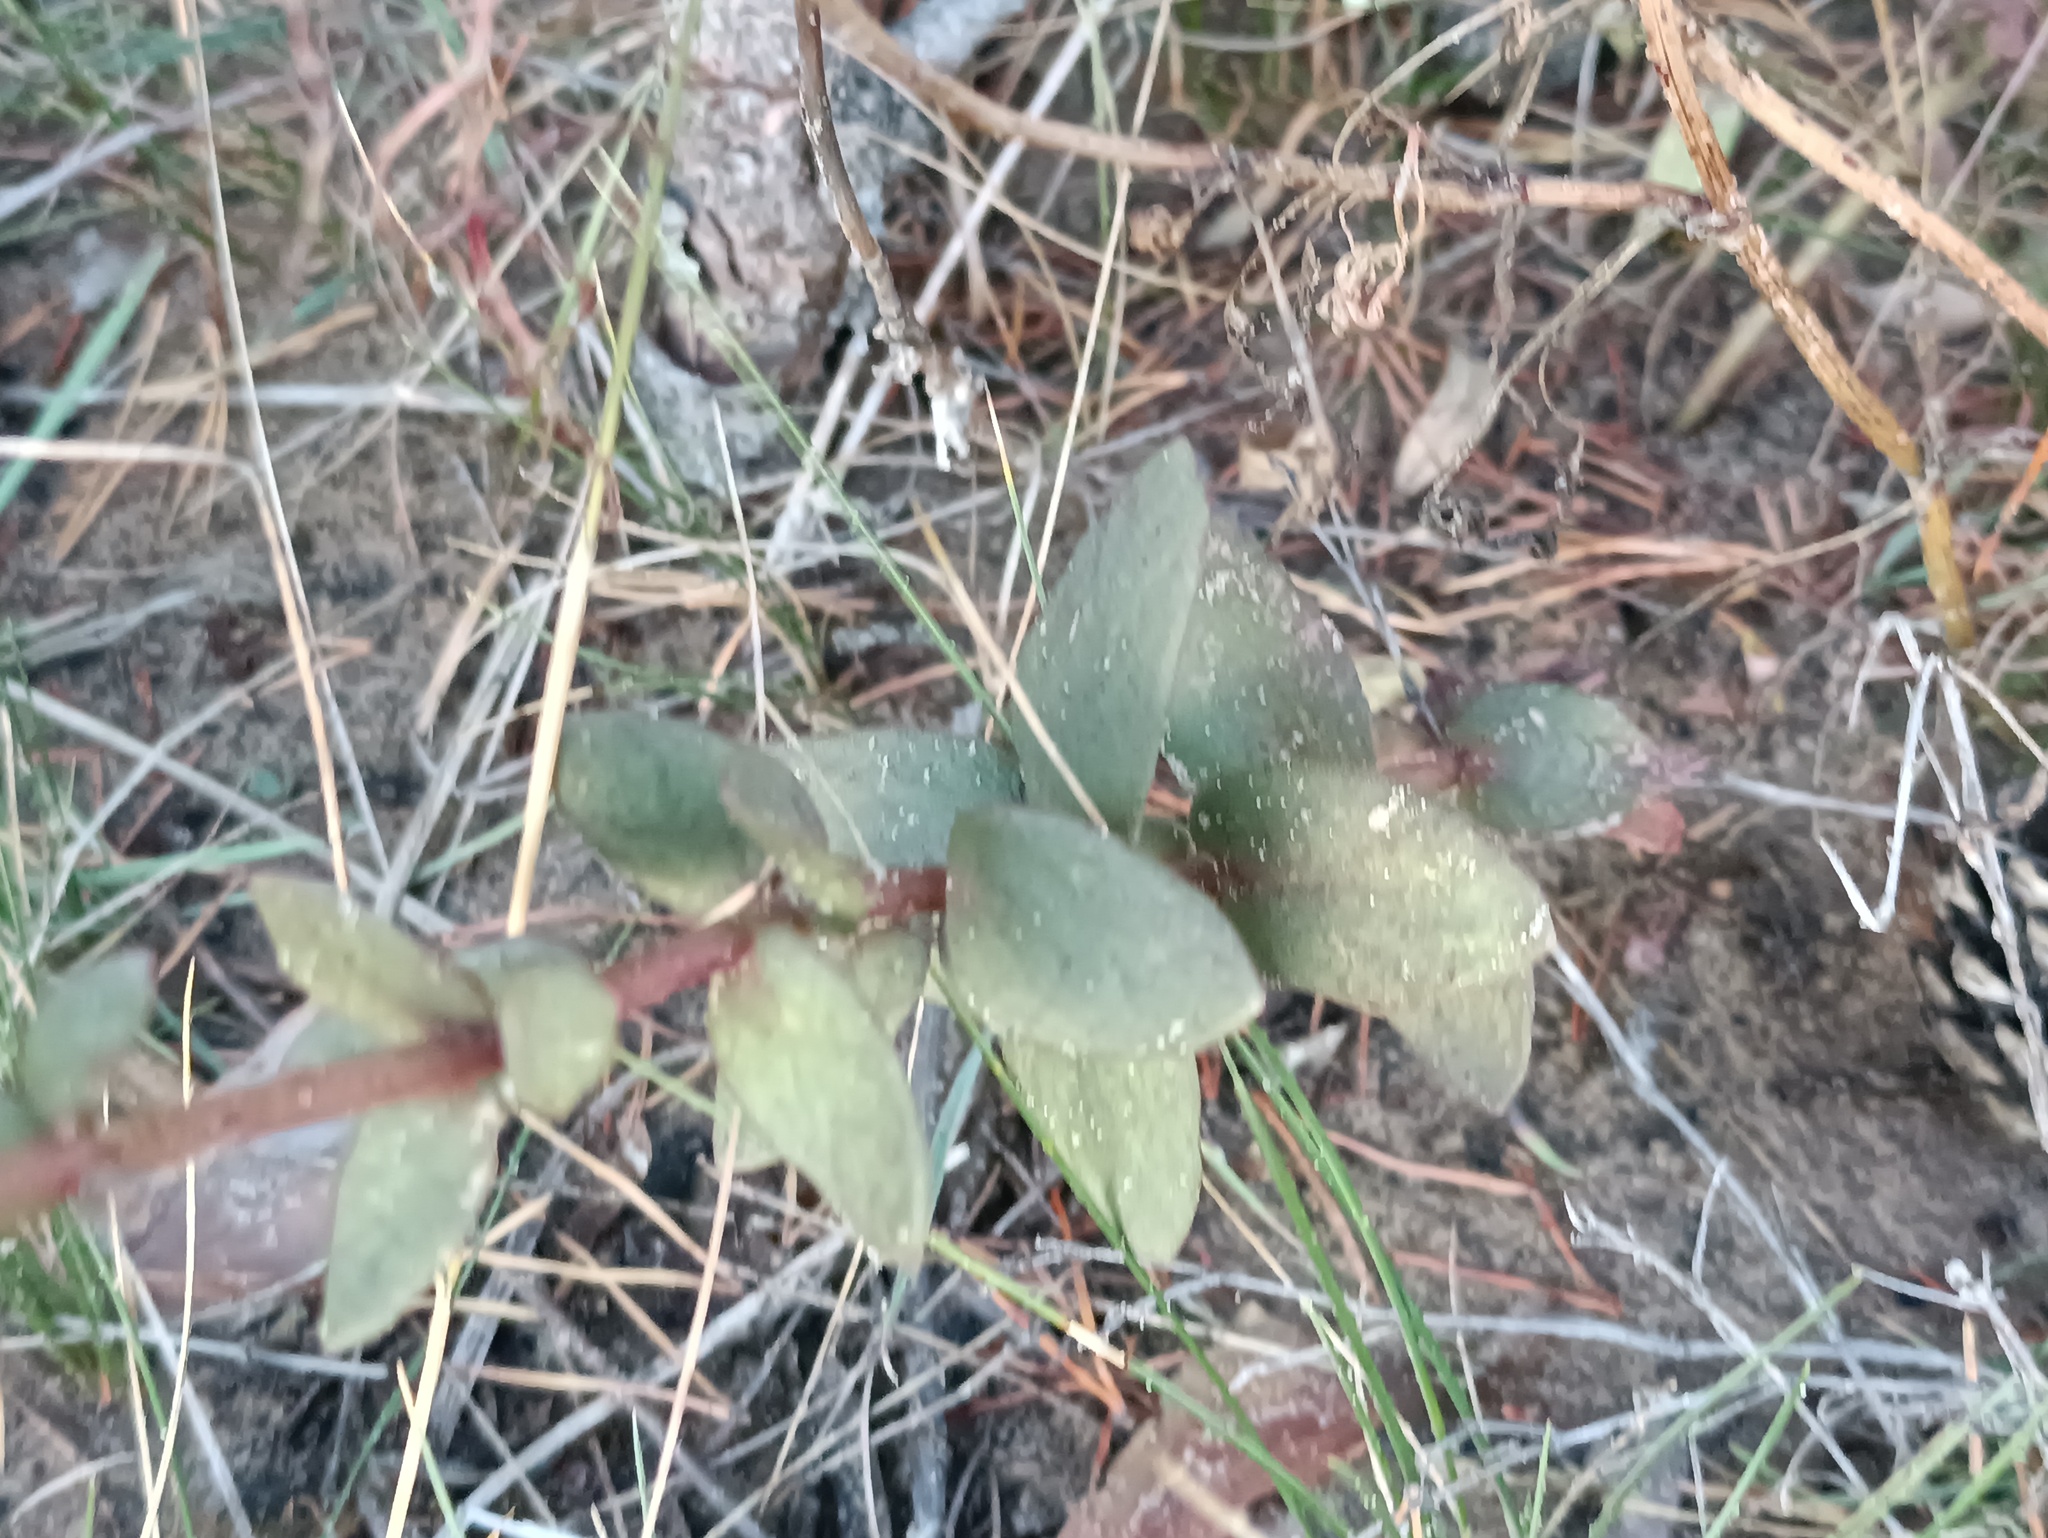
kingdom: Plantae
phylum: Tracheophyta
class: Magnoliopsida
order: Saxifragales
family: Crassulaceae
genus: Hylotelephium
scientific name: Hylotelephium maximum
